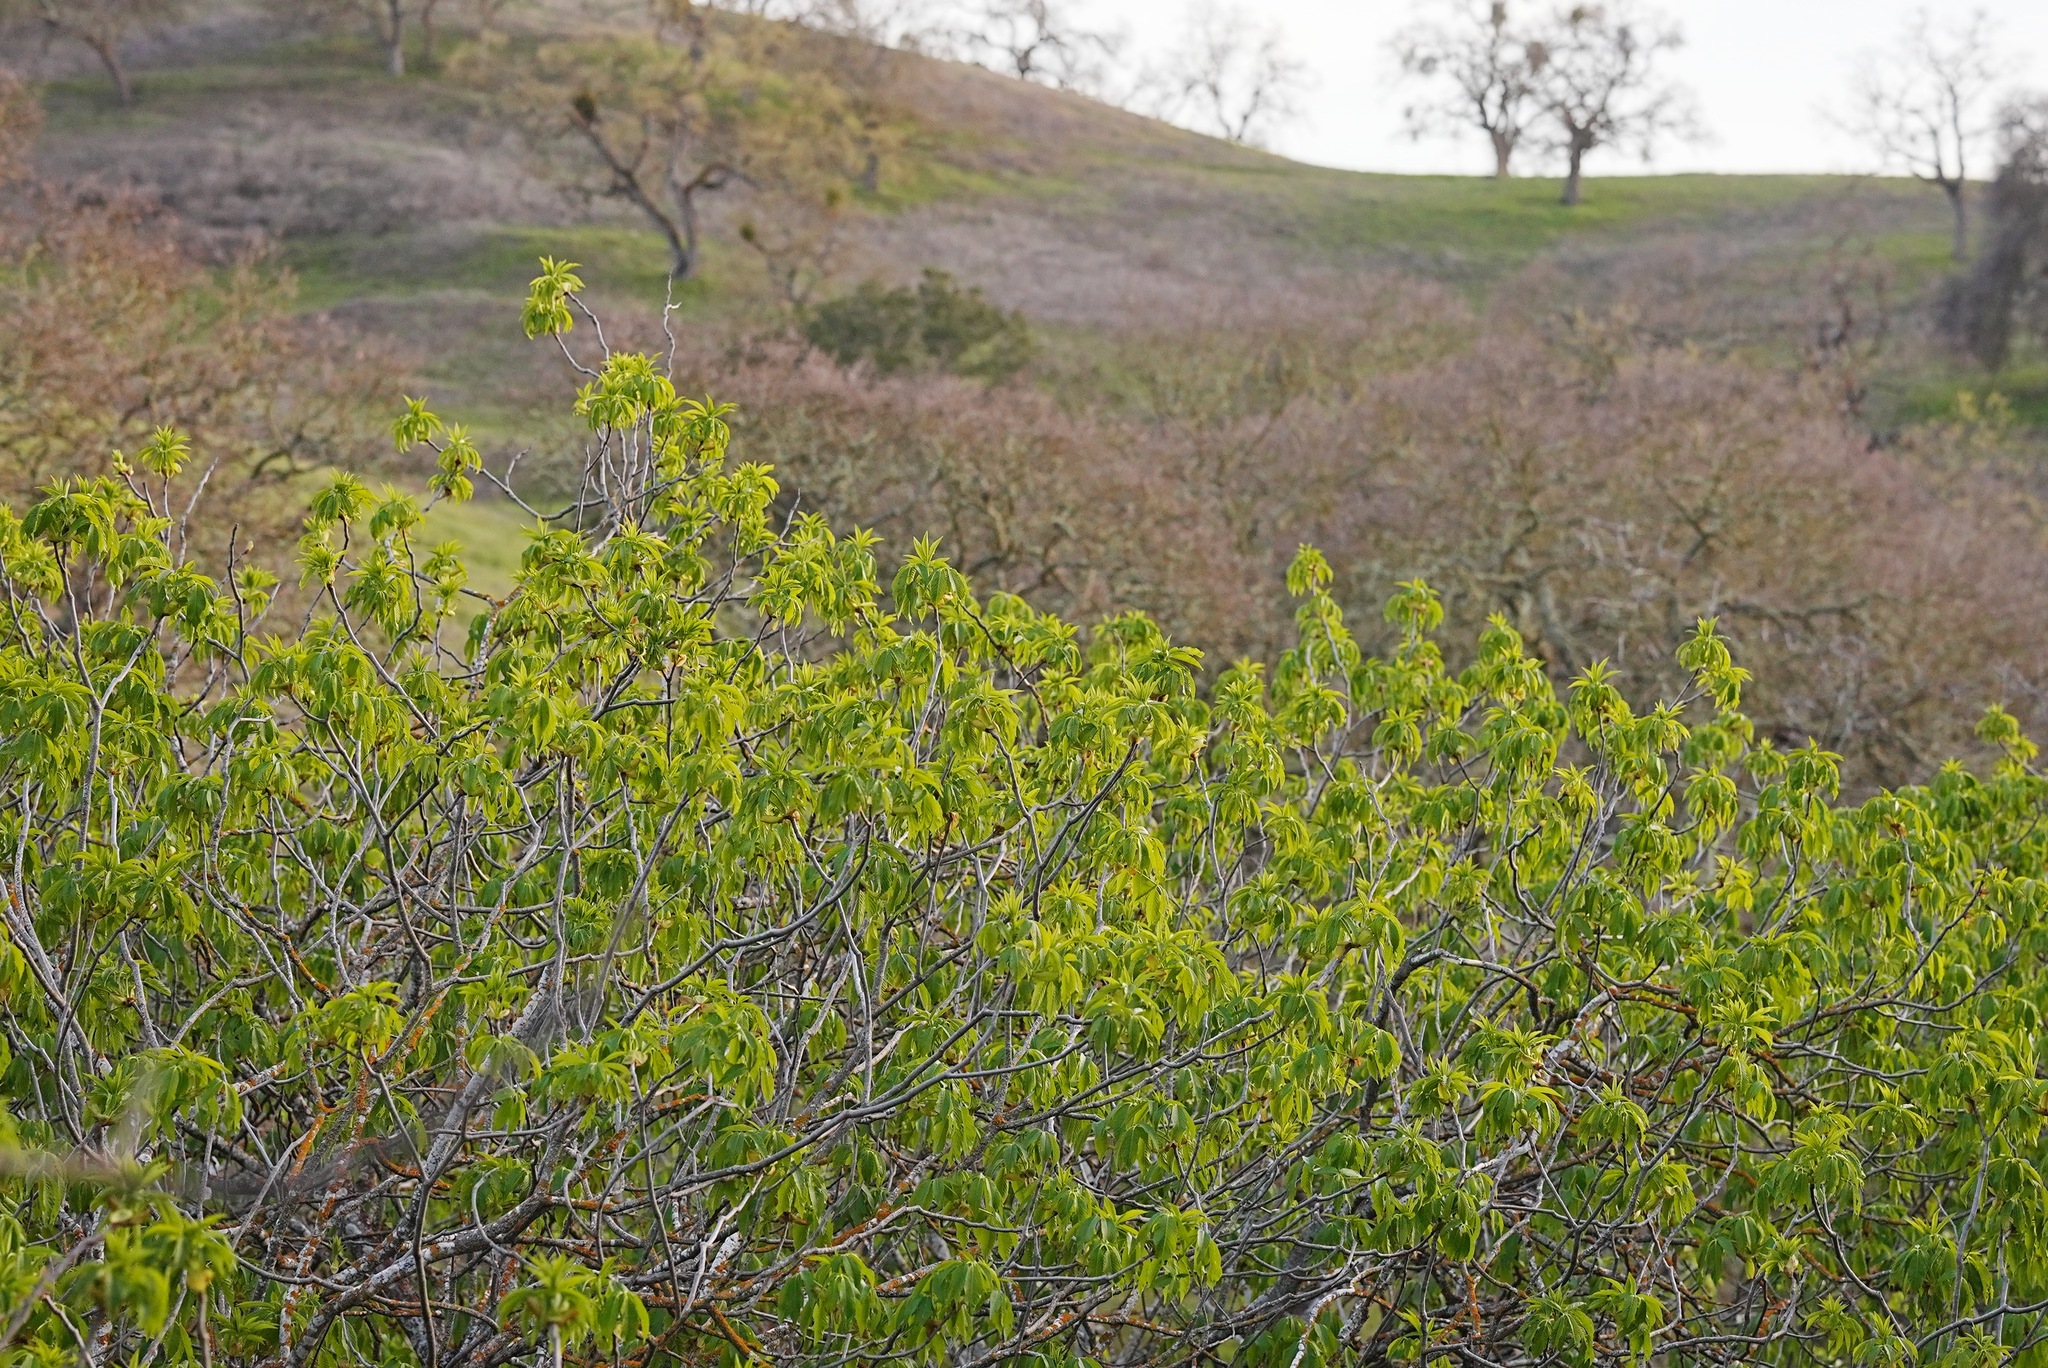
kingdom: Plantae
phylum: Tracheophyta
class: Magnoliopsida
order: Sapindales
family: Sapindaceae
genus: Aesculus
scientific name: Aesculus californica
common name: California buckeye
